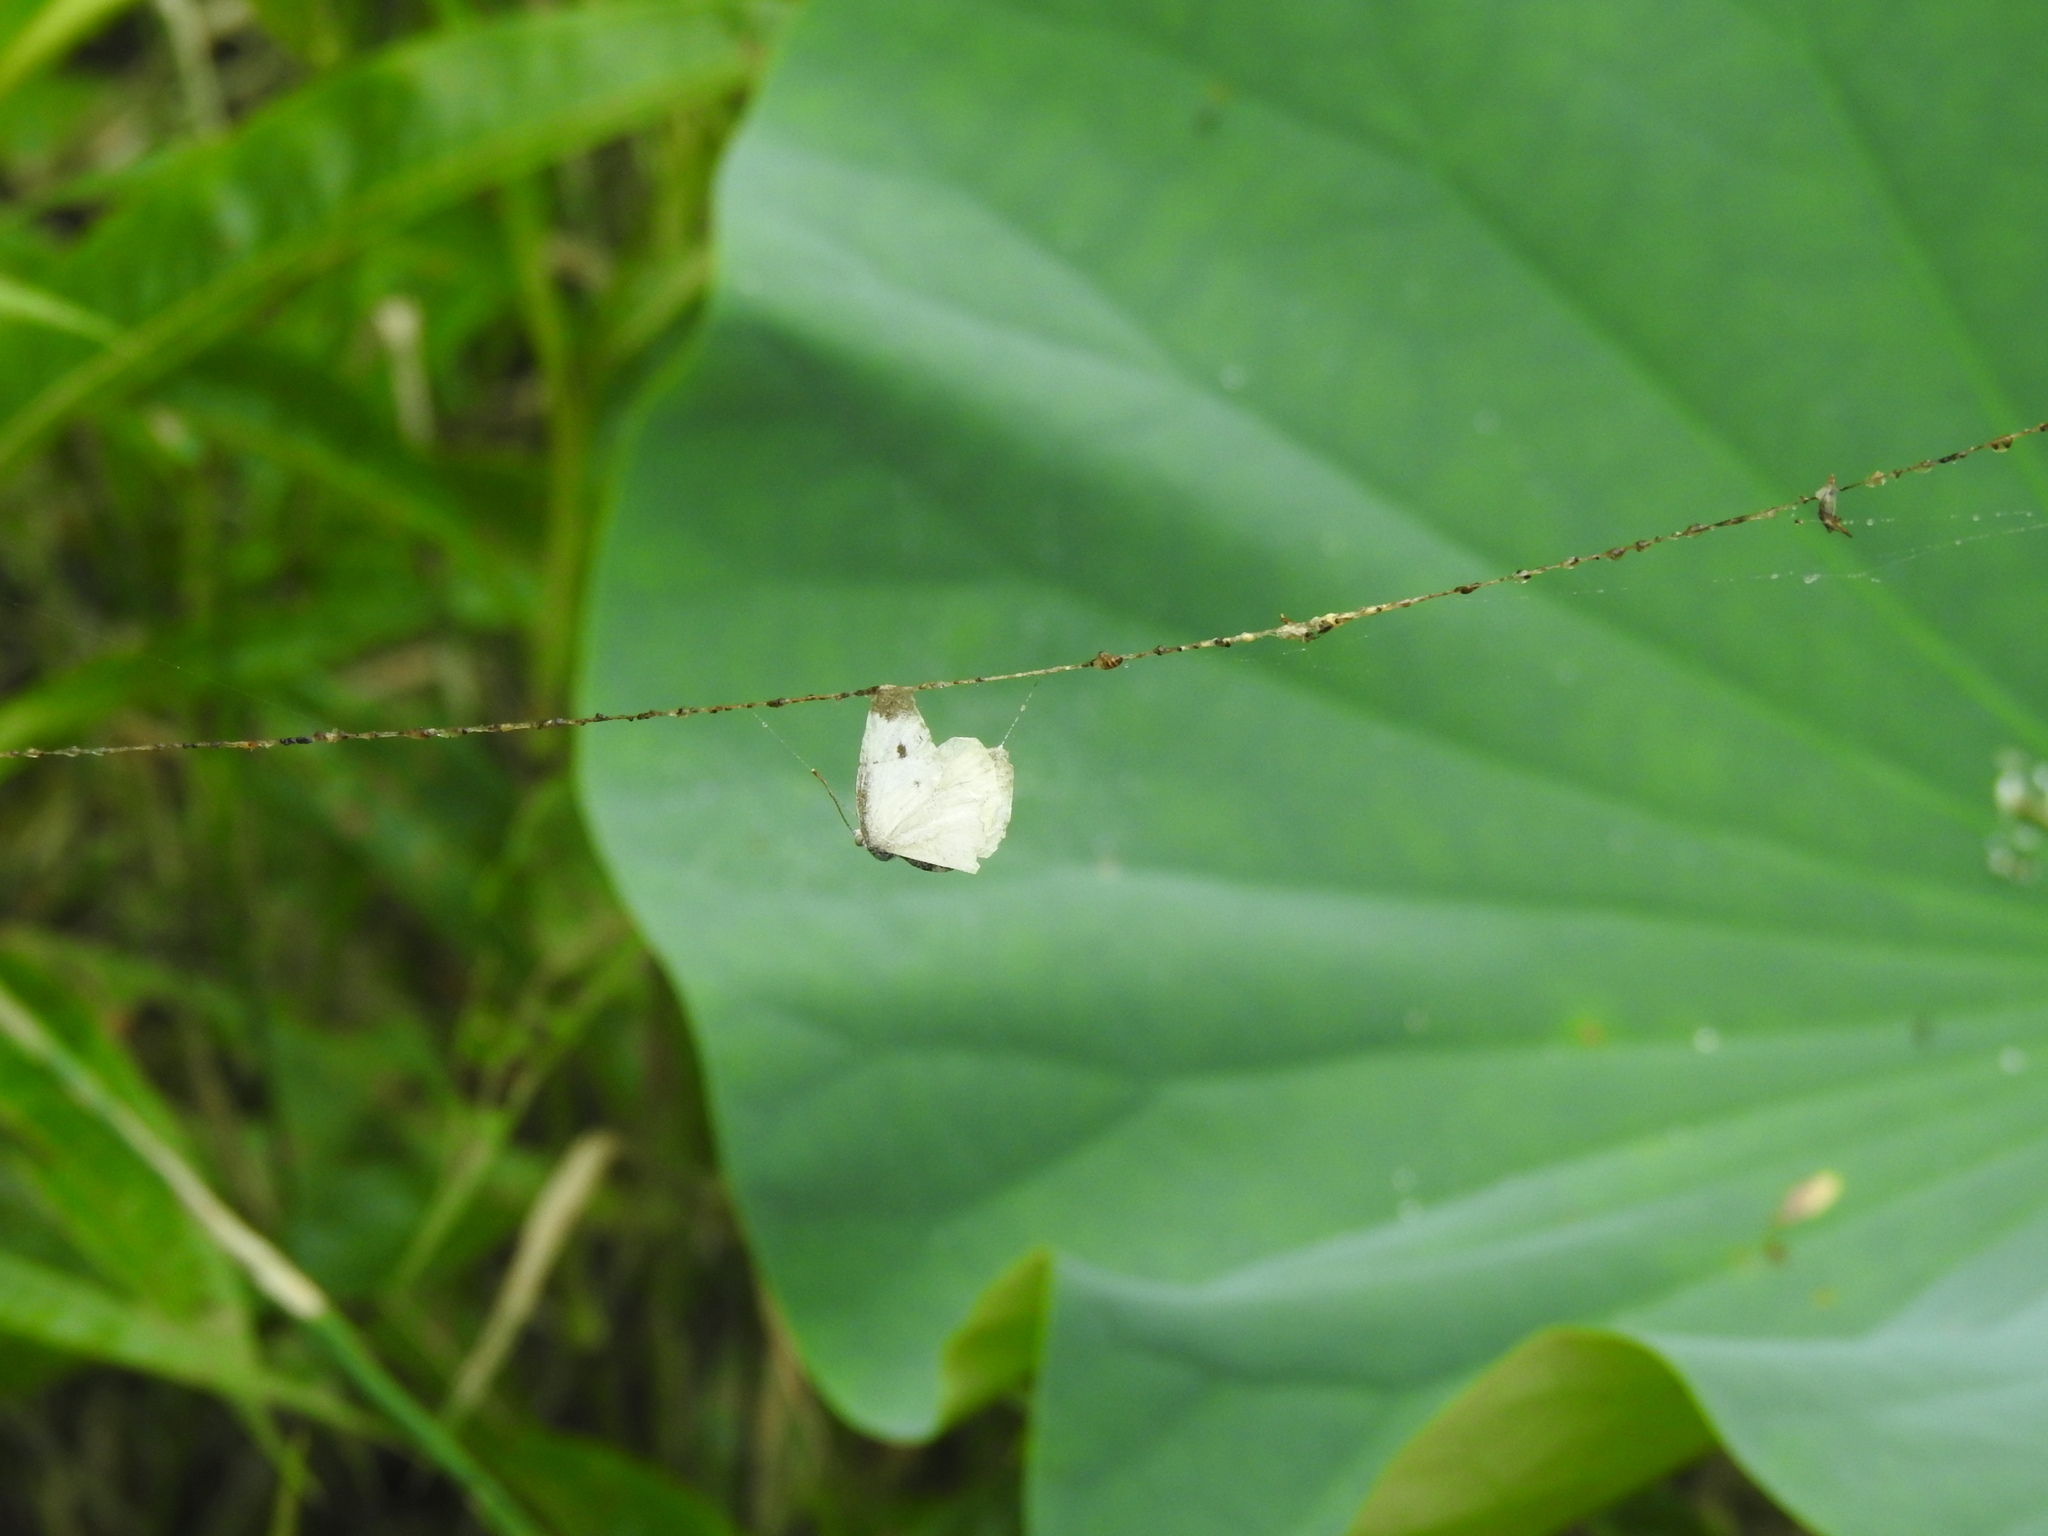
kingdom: Animalia
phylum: Arthropoda
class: Insecta
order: Lepidoptera
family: Pieridae
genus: Pieris
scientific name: Pieris rapae
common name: Small white
